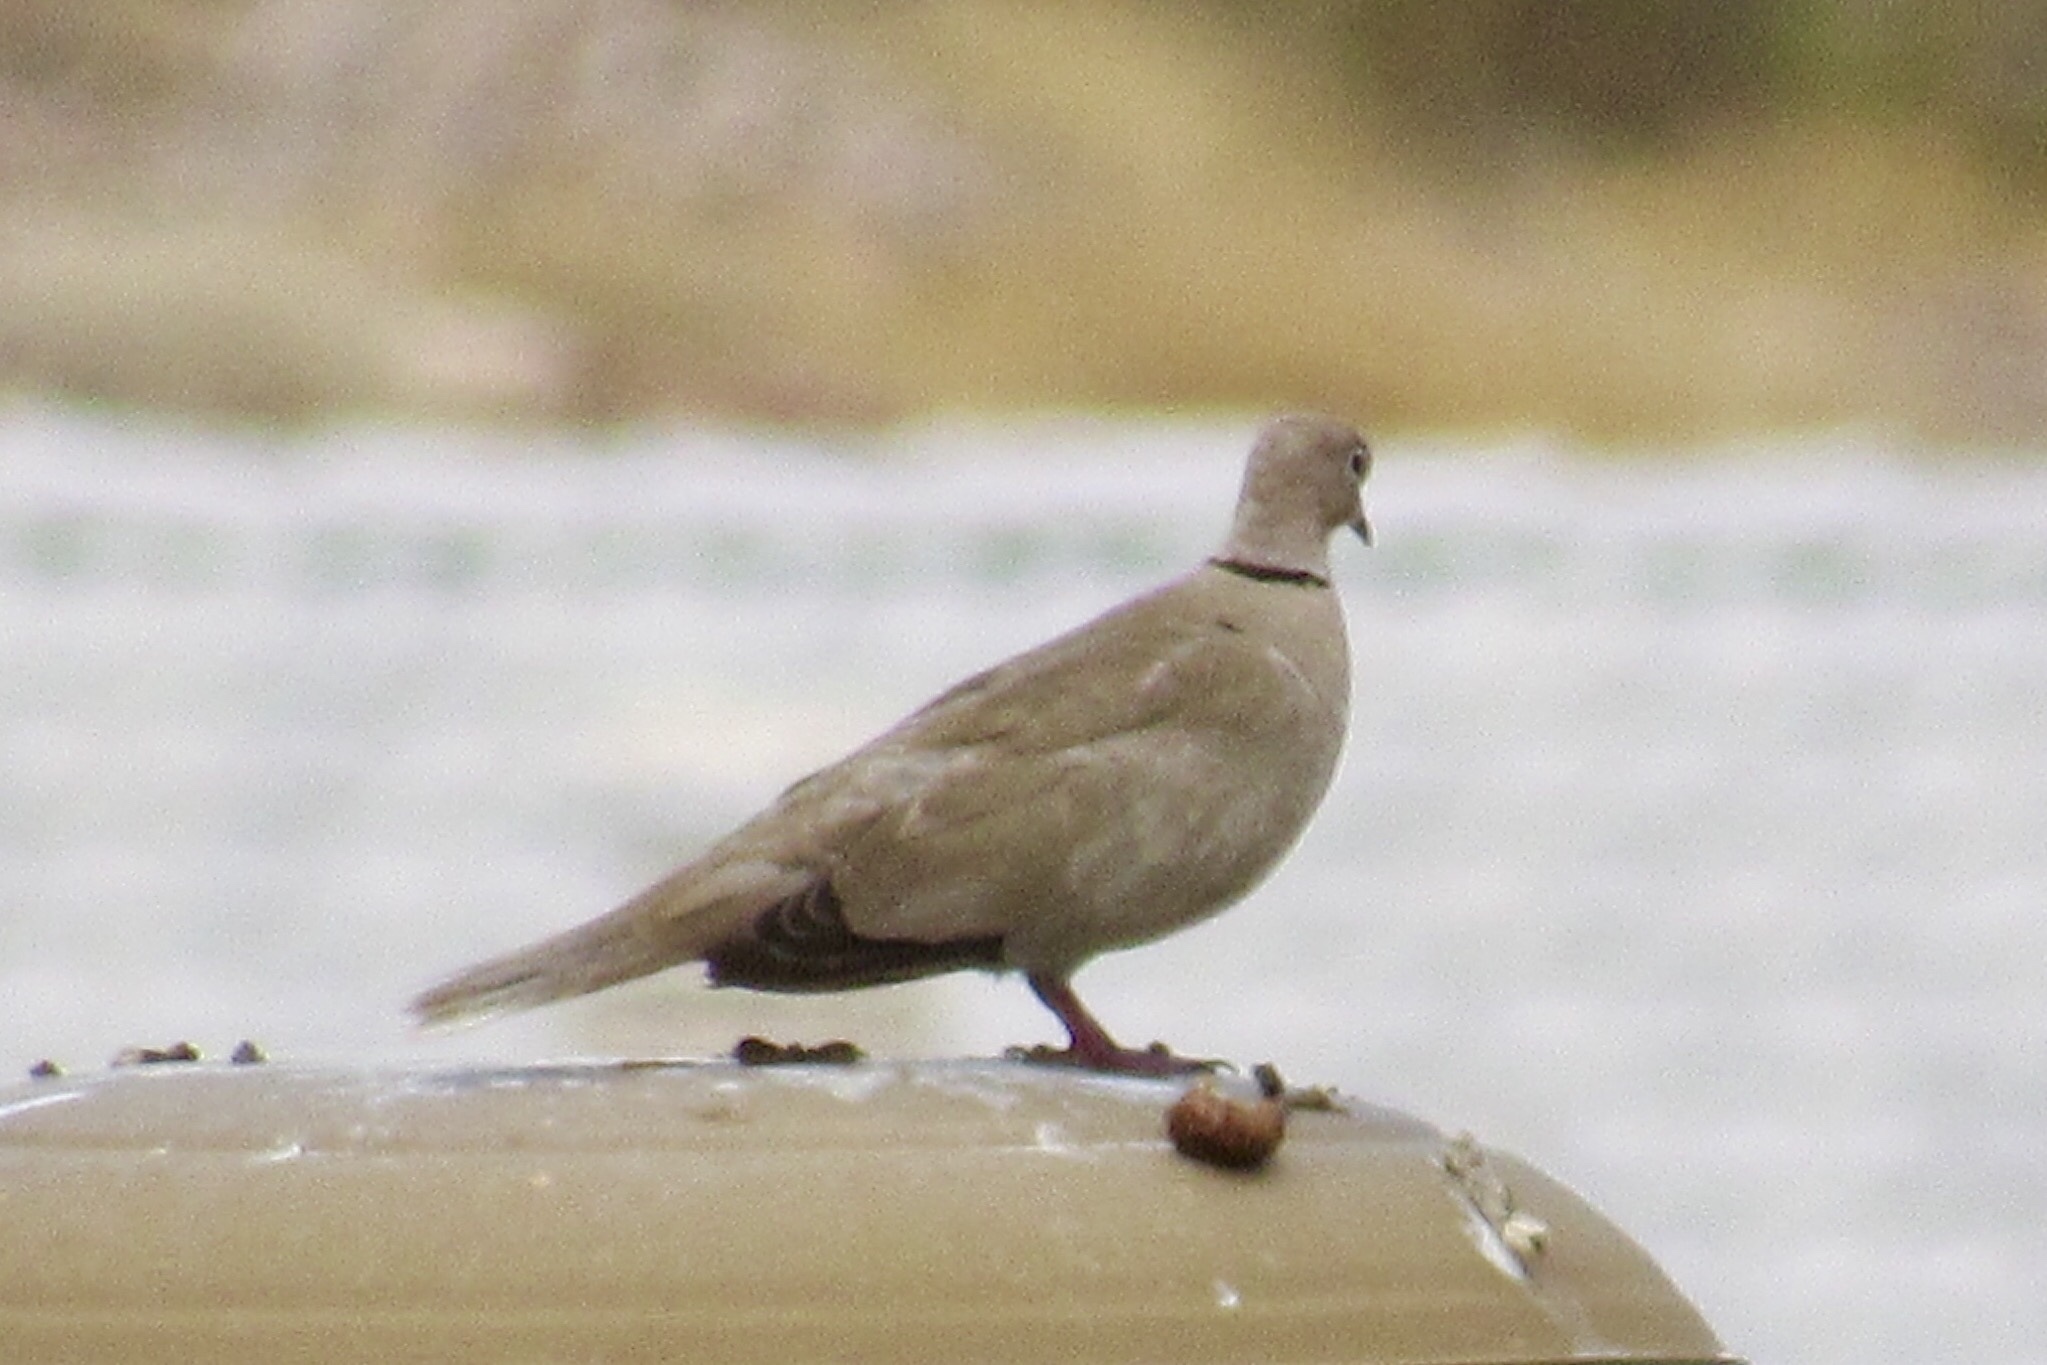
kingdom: Animalia
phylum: Chordata
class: Aves
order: Columbiformes
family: Columbidae
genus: Streptopelia
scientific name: Streptopelia decaocto
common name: Eurasian collared dove
